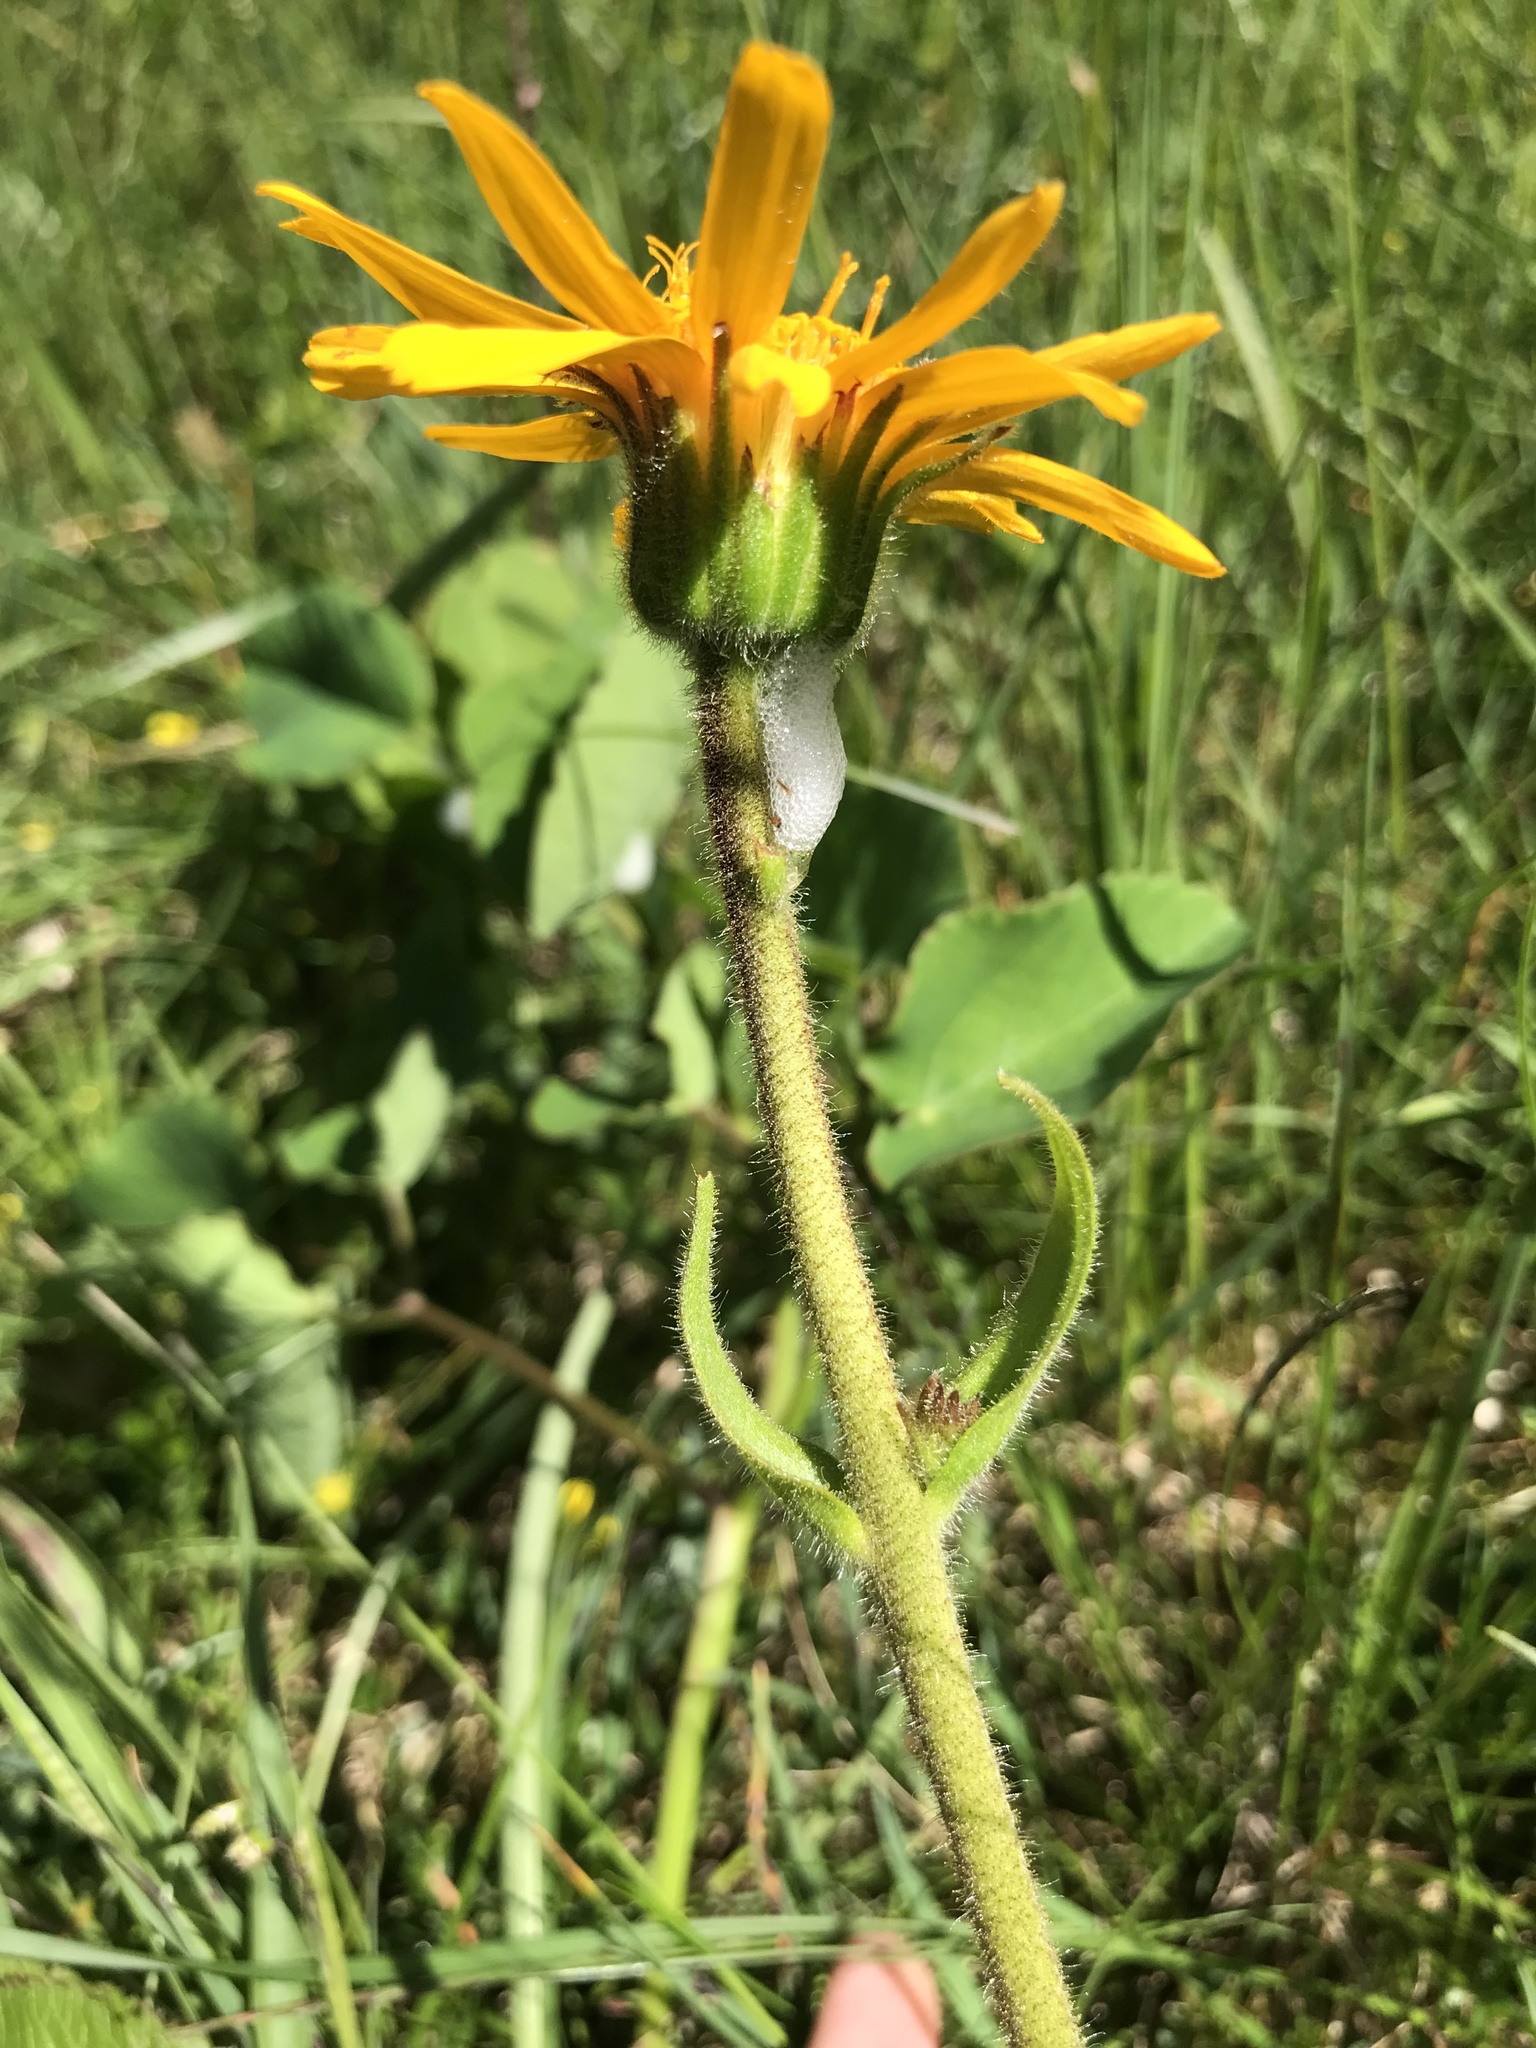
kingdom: Plantae
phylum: Tracheophyta
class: Magnoliopsida
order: Asterales
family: Asteraceae
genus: Arnica
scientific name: Arnica montana
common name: Leopard's bane
